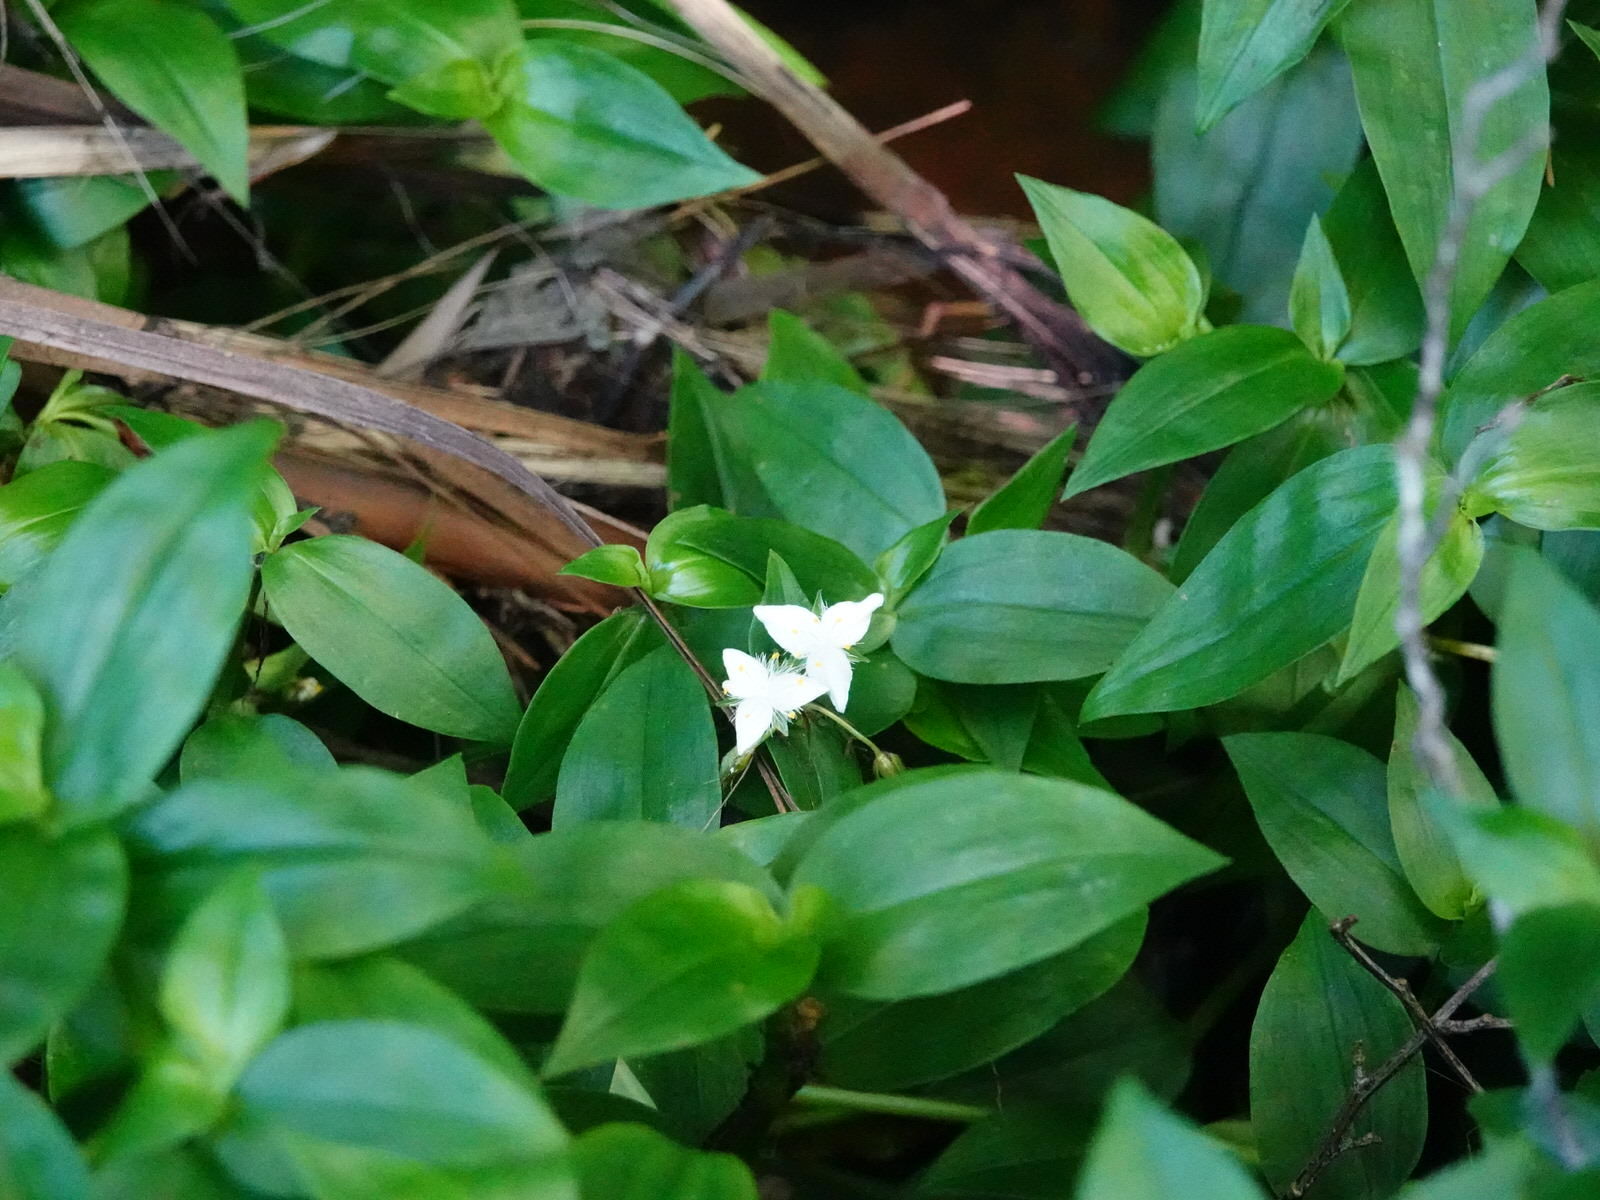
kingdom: Plantae
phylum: Tracheophyta
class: Liliopsida
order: Commelinales
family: Commelinaceae
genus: Tradescantia
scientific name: Tradescantia fluminensis
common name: Wandering-jew
